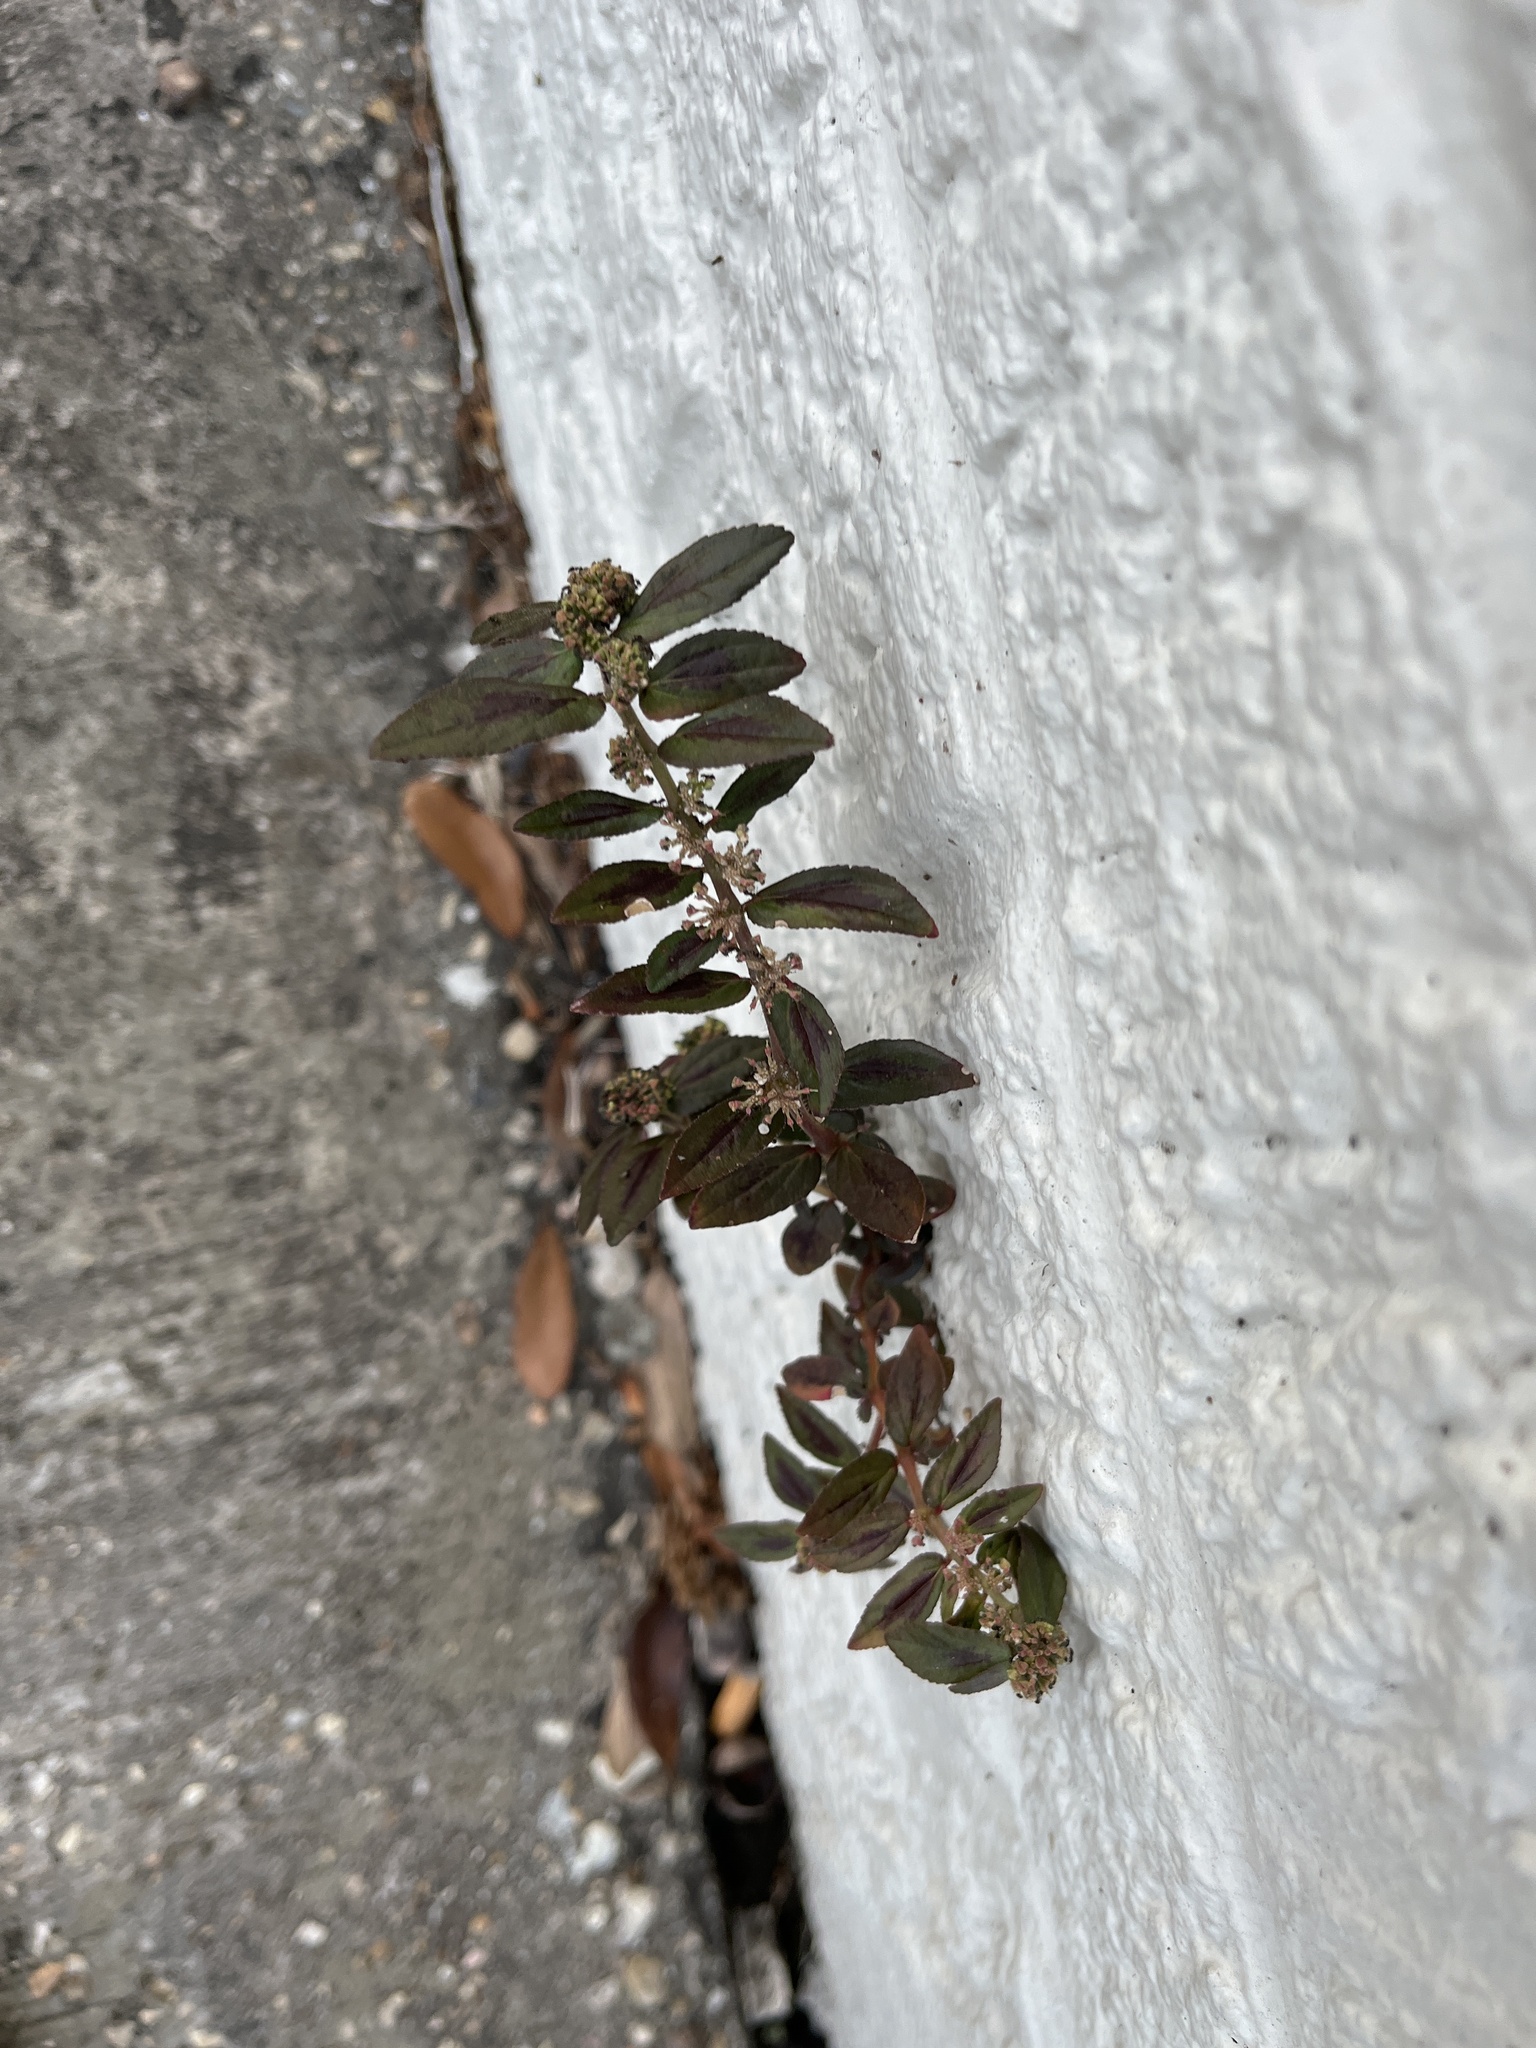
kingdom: Plantae
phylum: Tracheophyta
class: Magnoliopsida
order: Malpighiales
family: Euphorbiaceae
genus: Euphorbia
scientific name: Euphorbia hirta
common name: Pillpod sandmat
